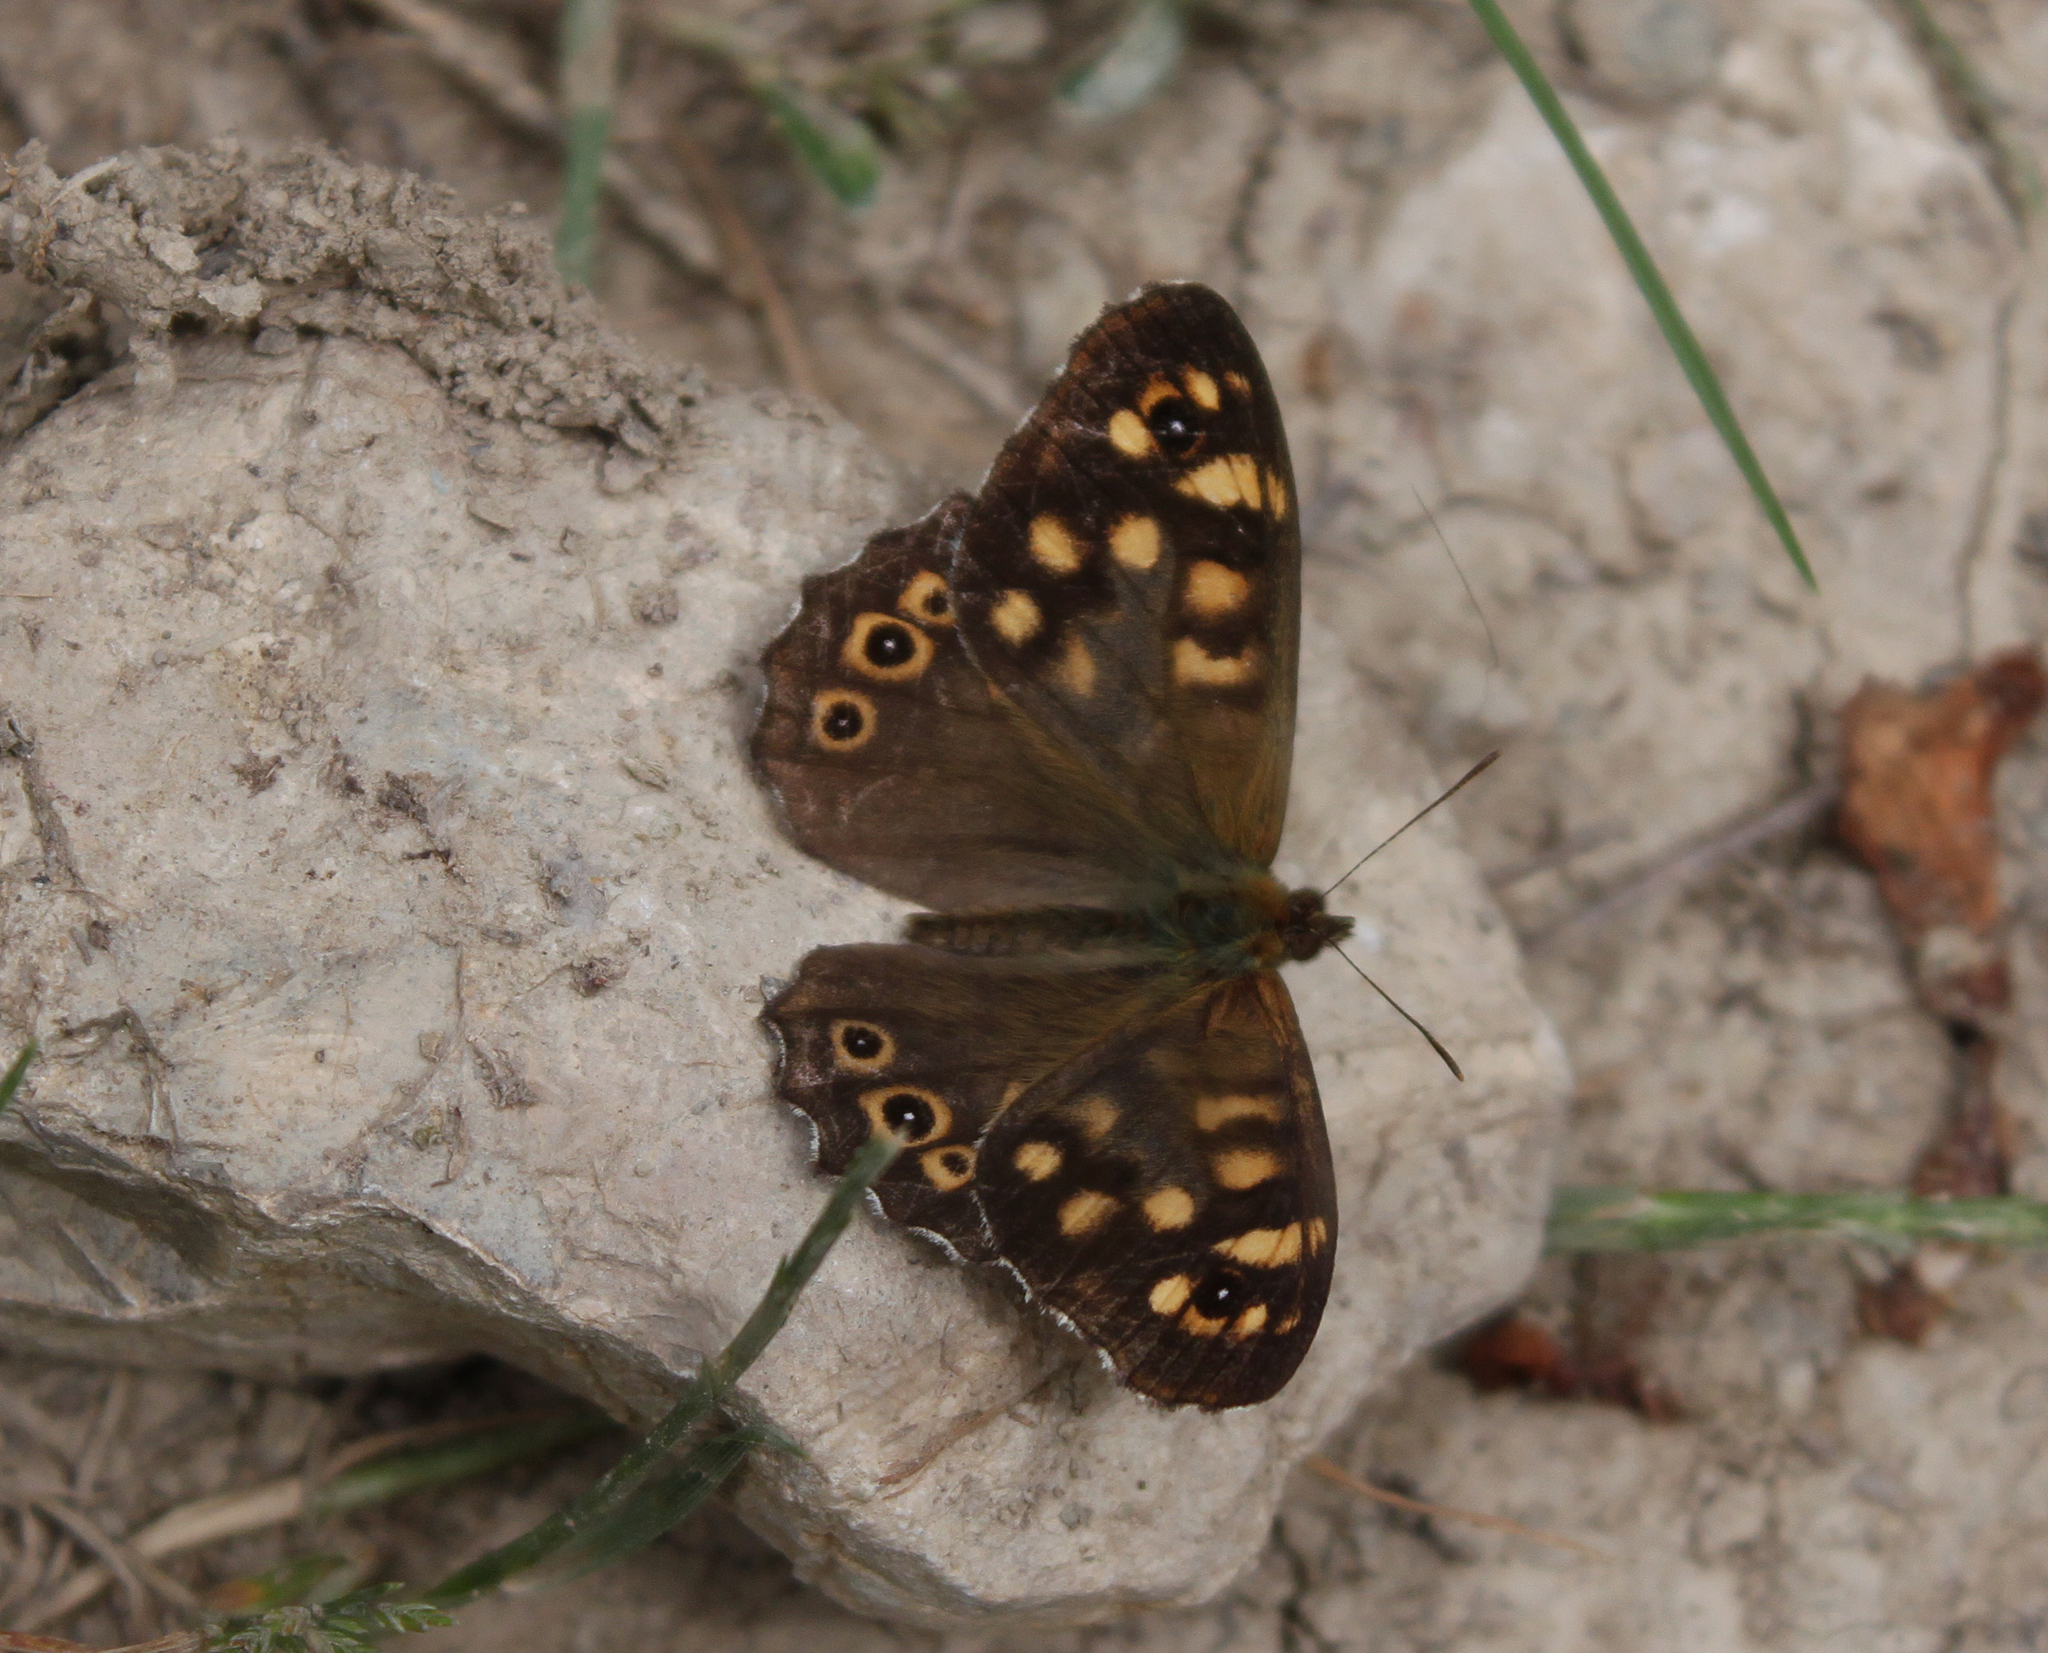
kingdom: Animalia
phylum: Arthropoda
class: Insecta
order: Lepidoptera
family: Nymphalidae
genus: Pararge
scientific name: Pararge aegeria
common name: Speckled wood
